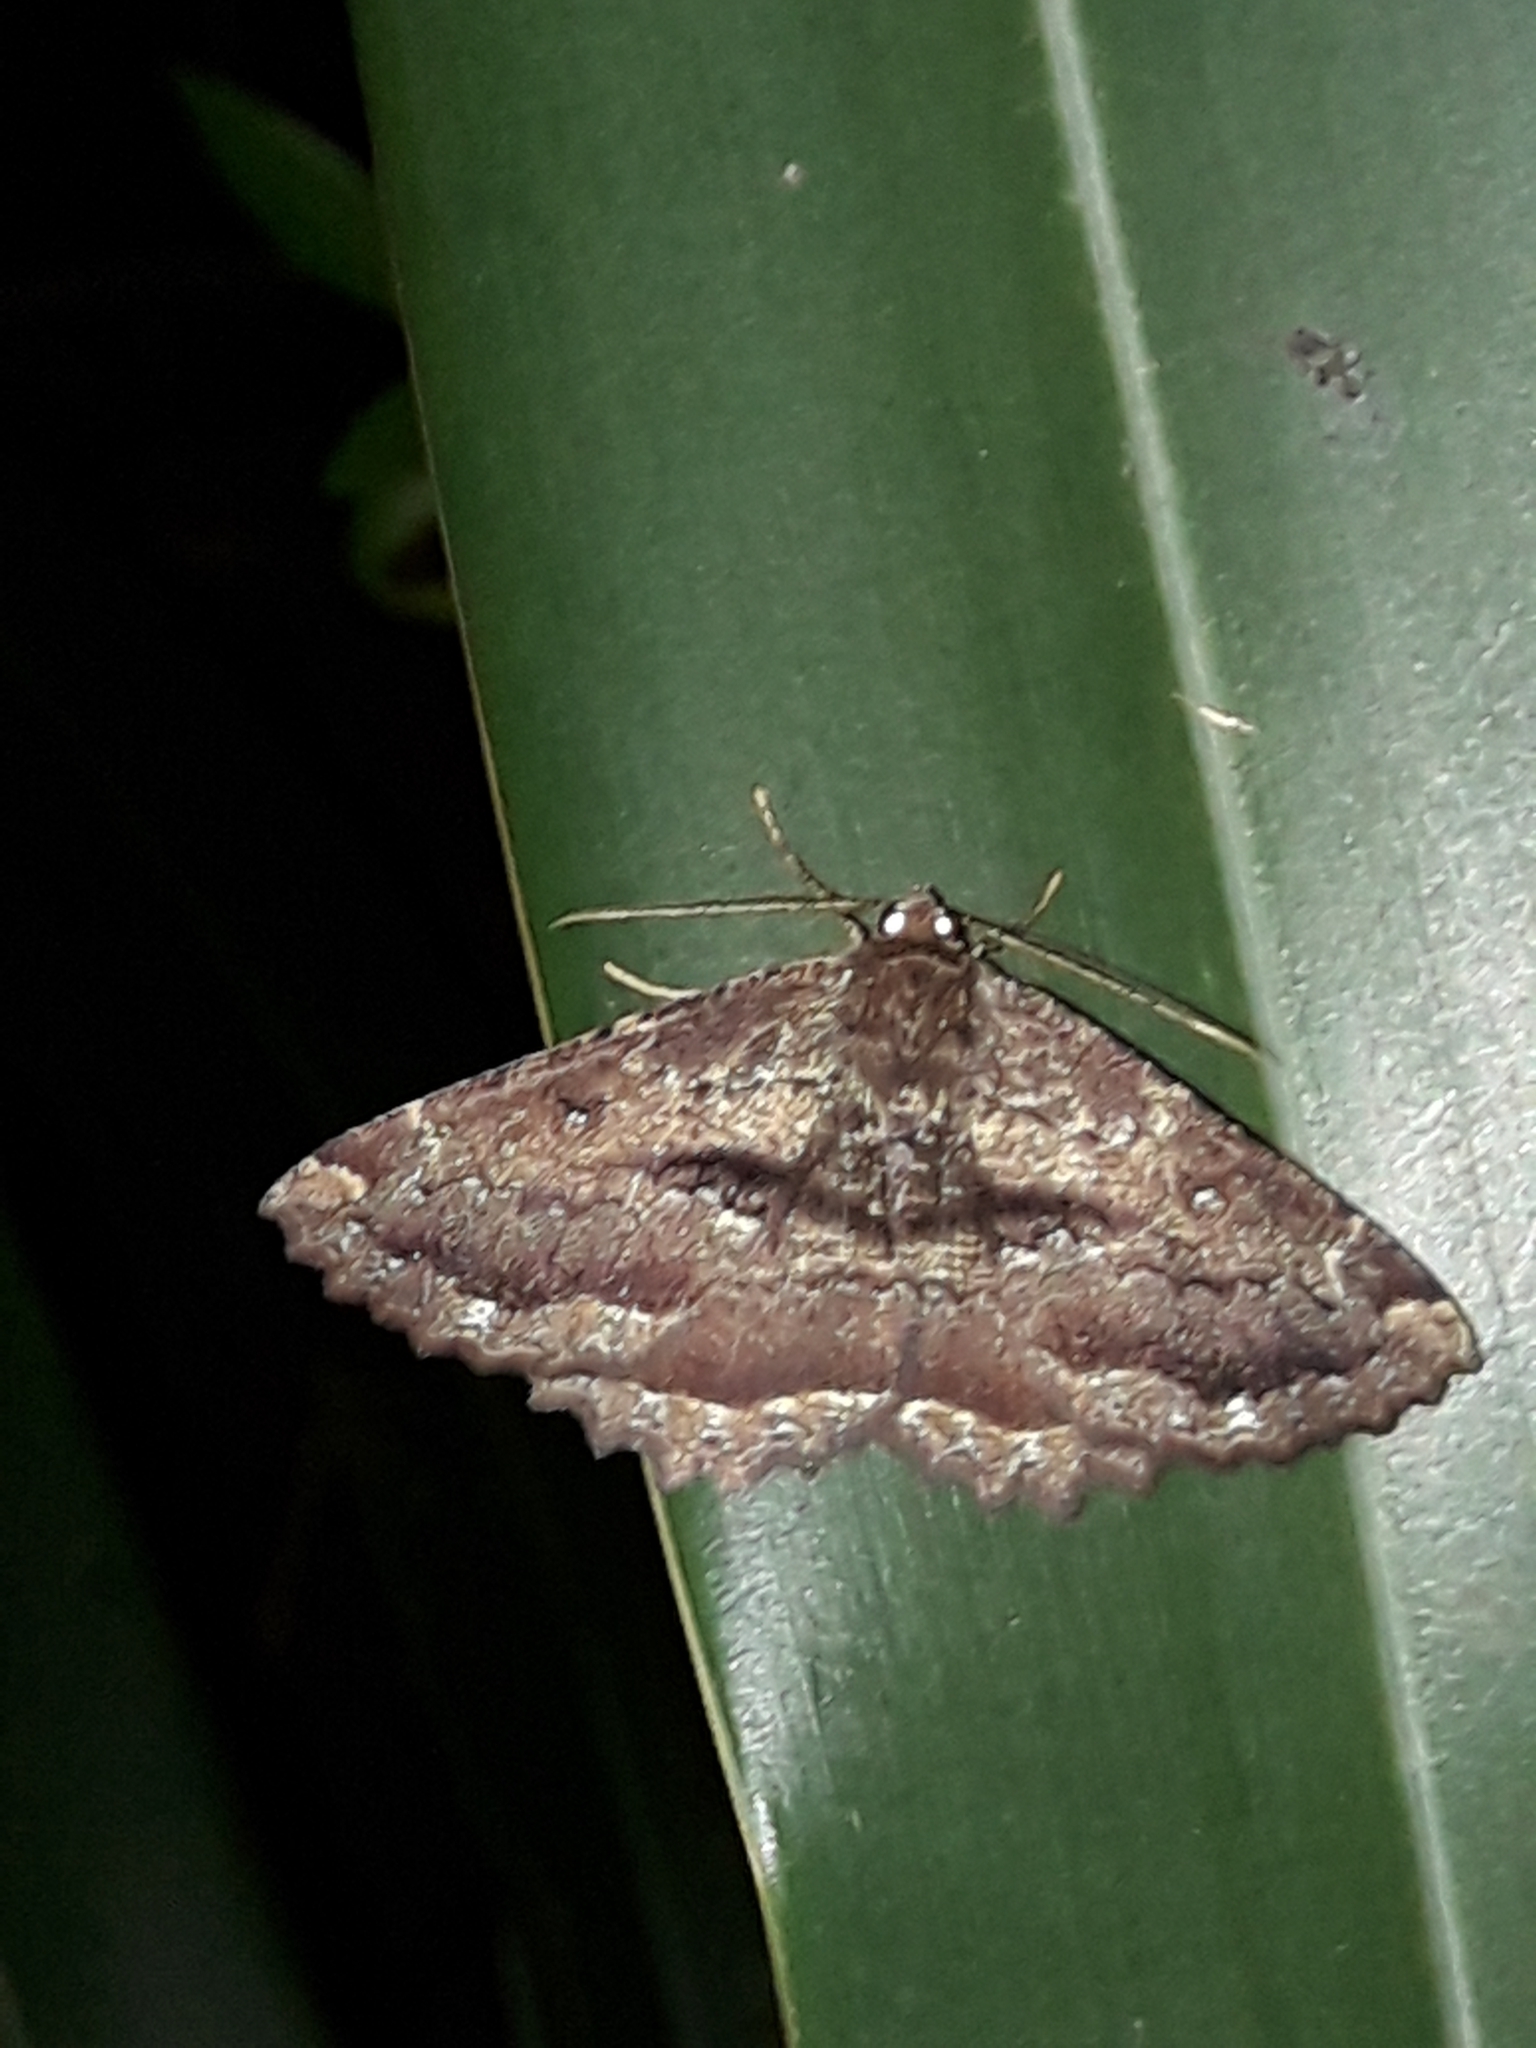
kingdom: Animalia
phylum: Arthropoda
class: Insecta
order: Lepidoptera
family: Geometridae
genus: Gellonia
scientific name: Gellonia dejectaria
